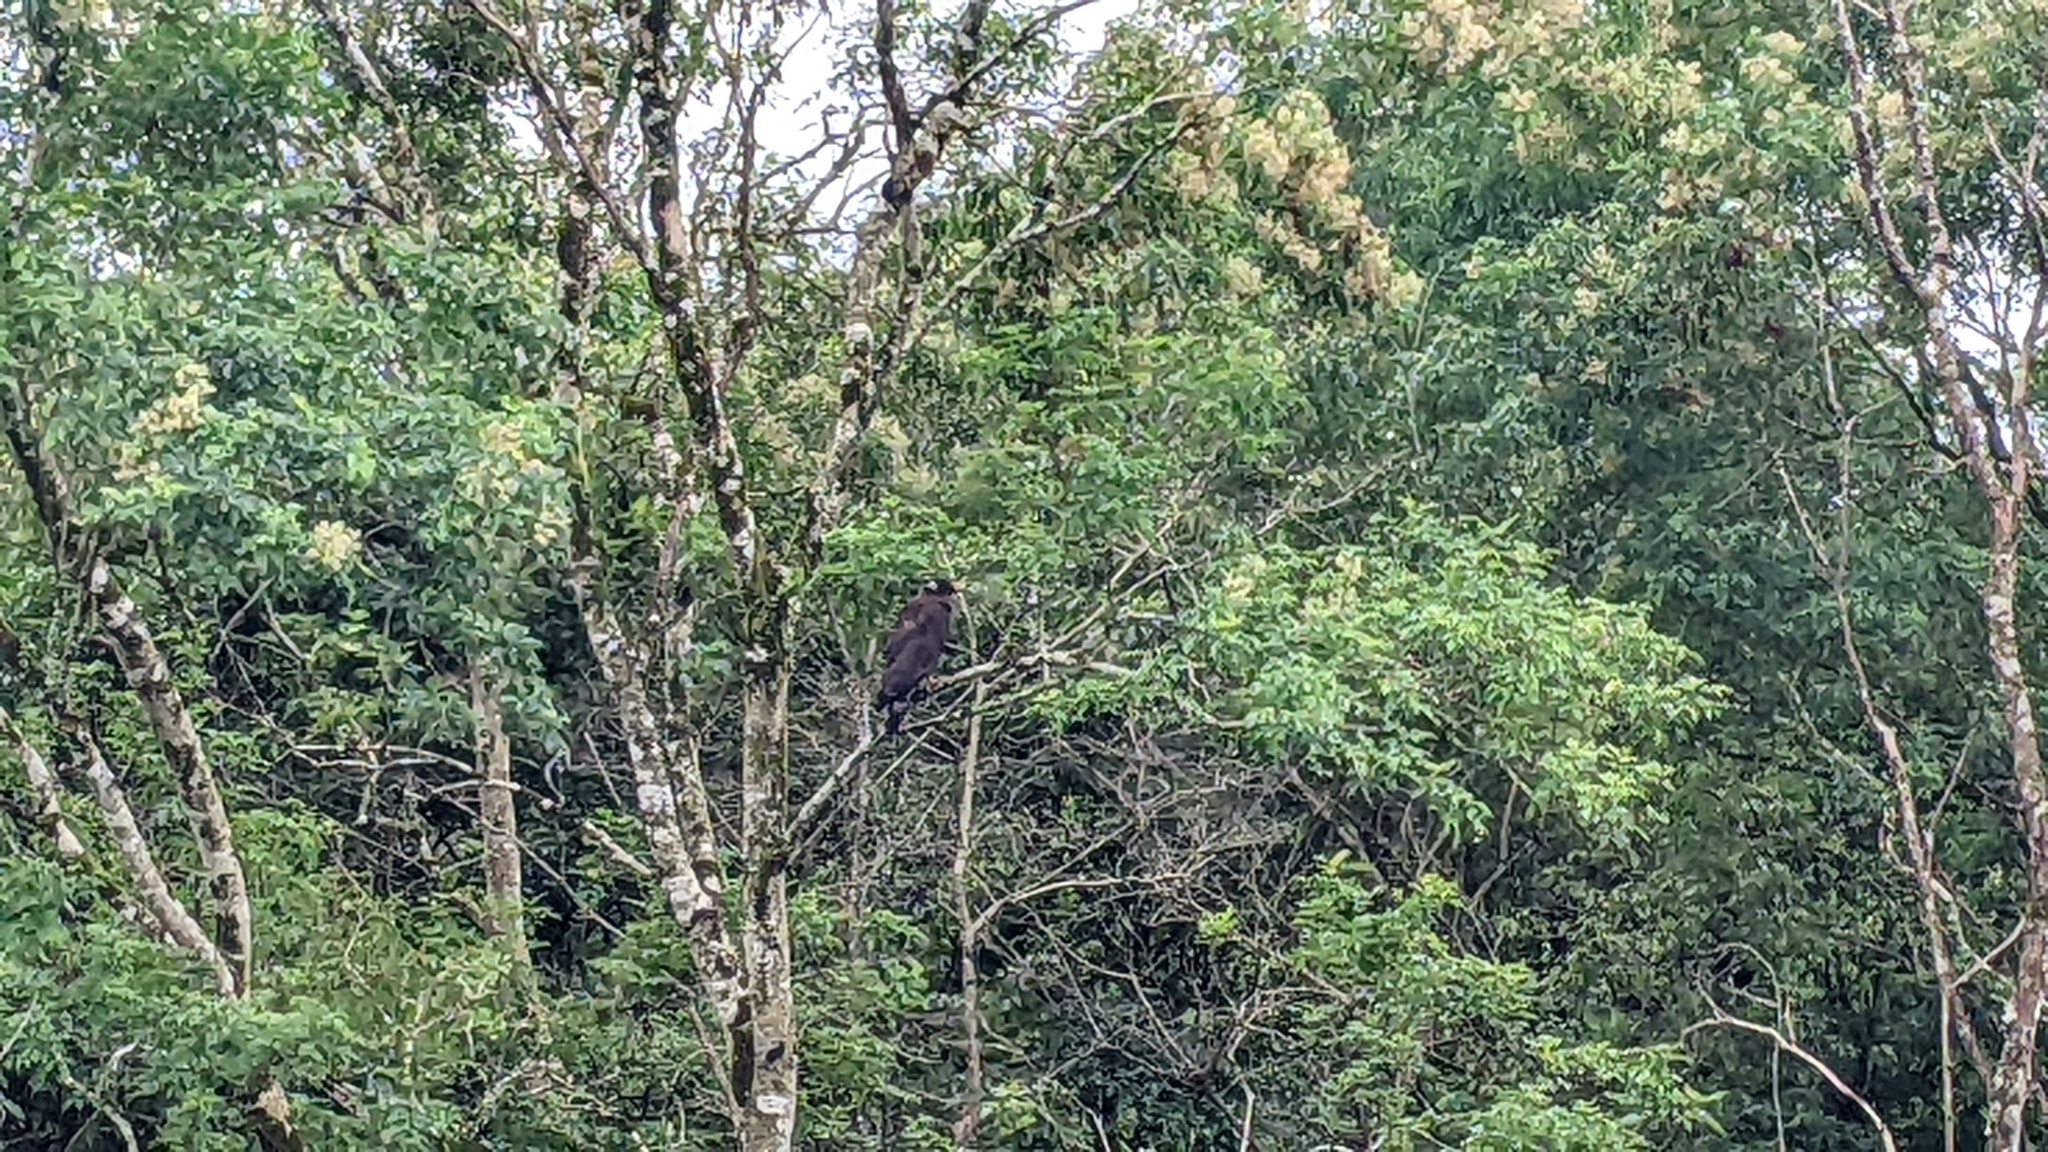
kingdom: Animalia
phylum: Chordata
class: Aves
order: Accipitriformes
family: Accipitridae
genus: Spilornis
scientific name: Spilornis cheela
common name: Crested serpent eagle
